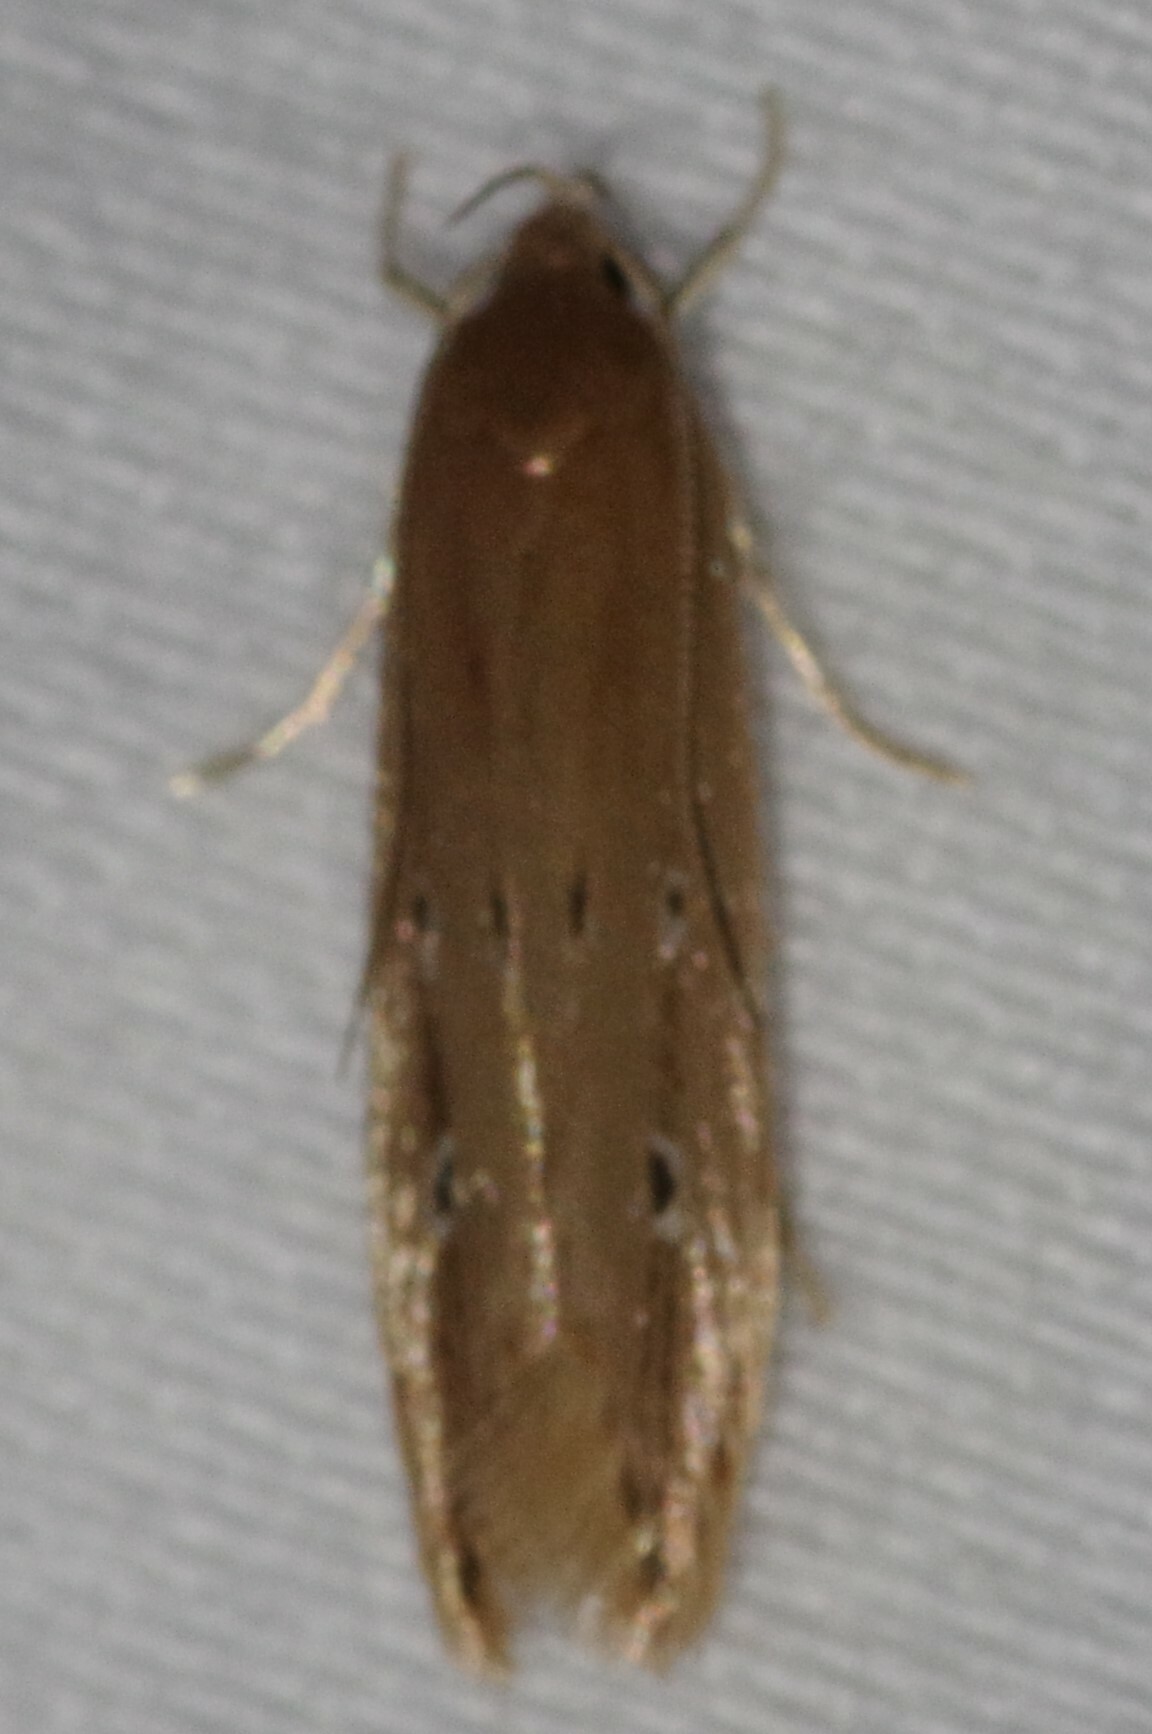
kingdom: Animalia
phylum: Arthropoda
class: Insecta
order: Lepidoptera
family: Cosmopterigidae
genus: Limnaecia
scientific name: Limnaecia phragmitella
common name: Bulrush cosmet
